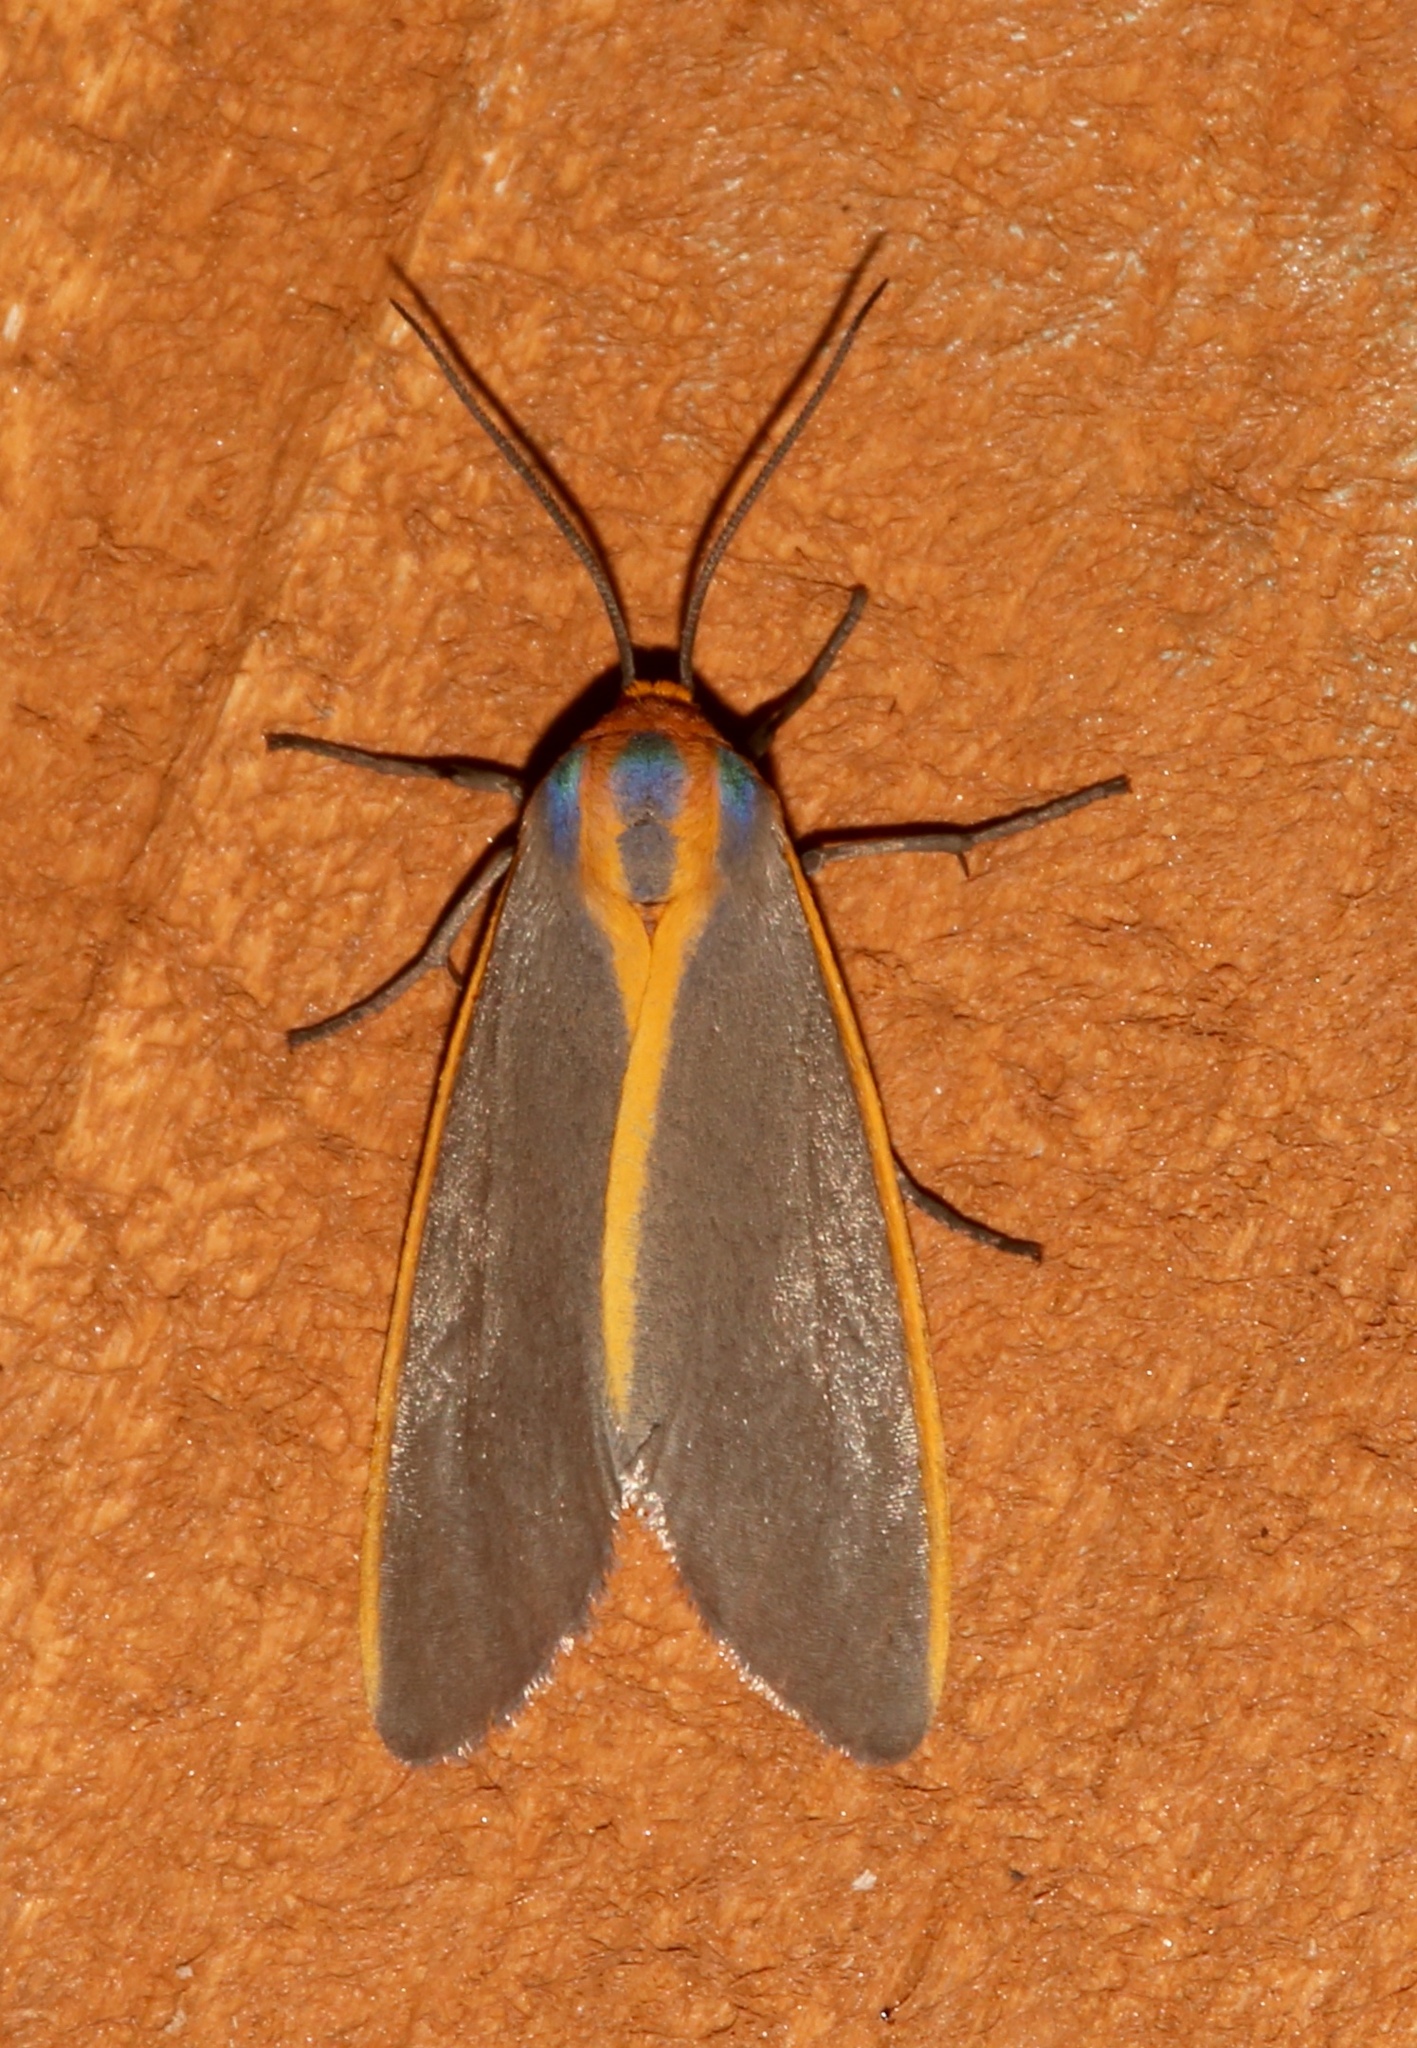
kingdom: Animalia
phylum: Arthropoda
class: Insecta
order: Lepidoptera
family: Erebidae
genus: Pygarctia
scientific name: Pygarctia abdominalis
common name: Yellow-edged pygarctia moth
